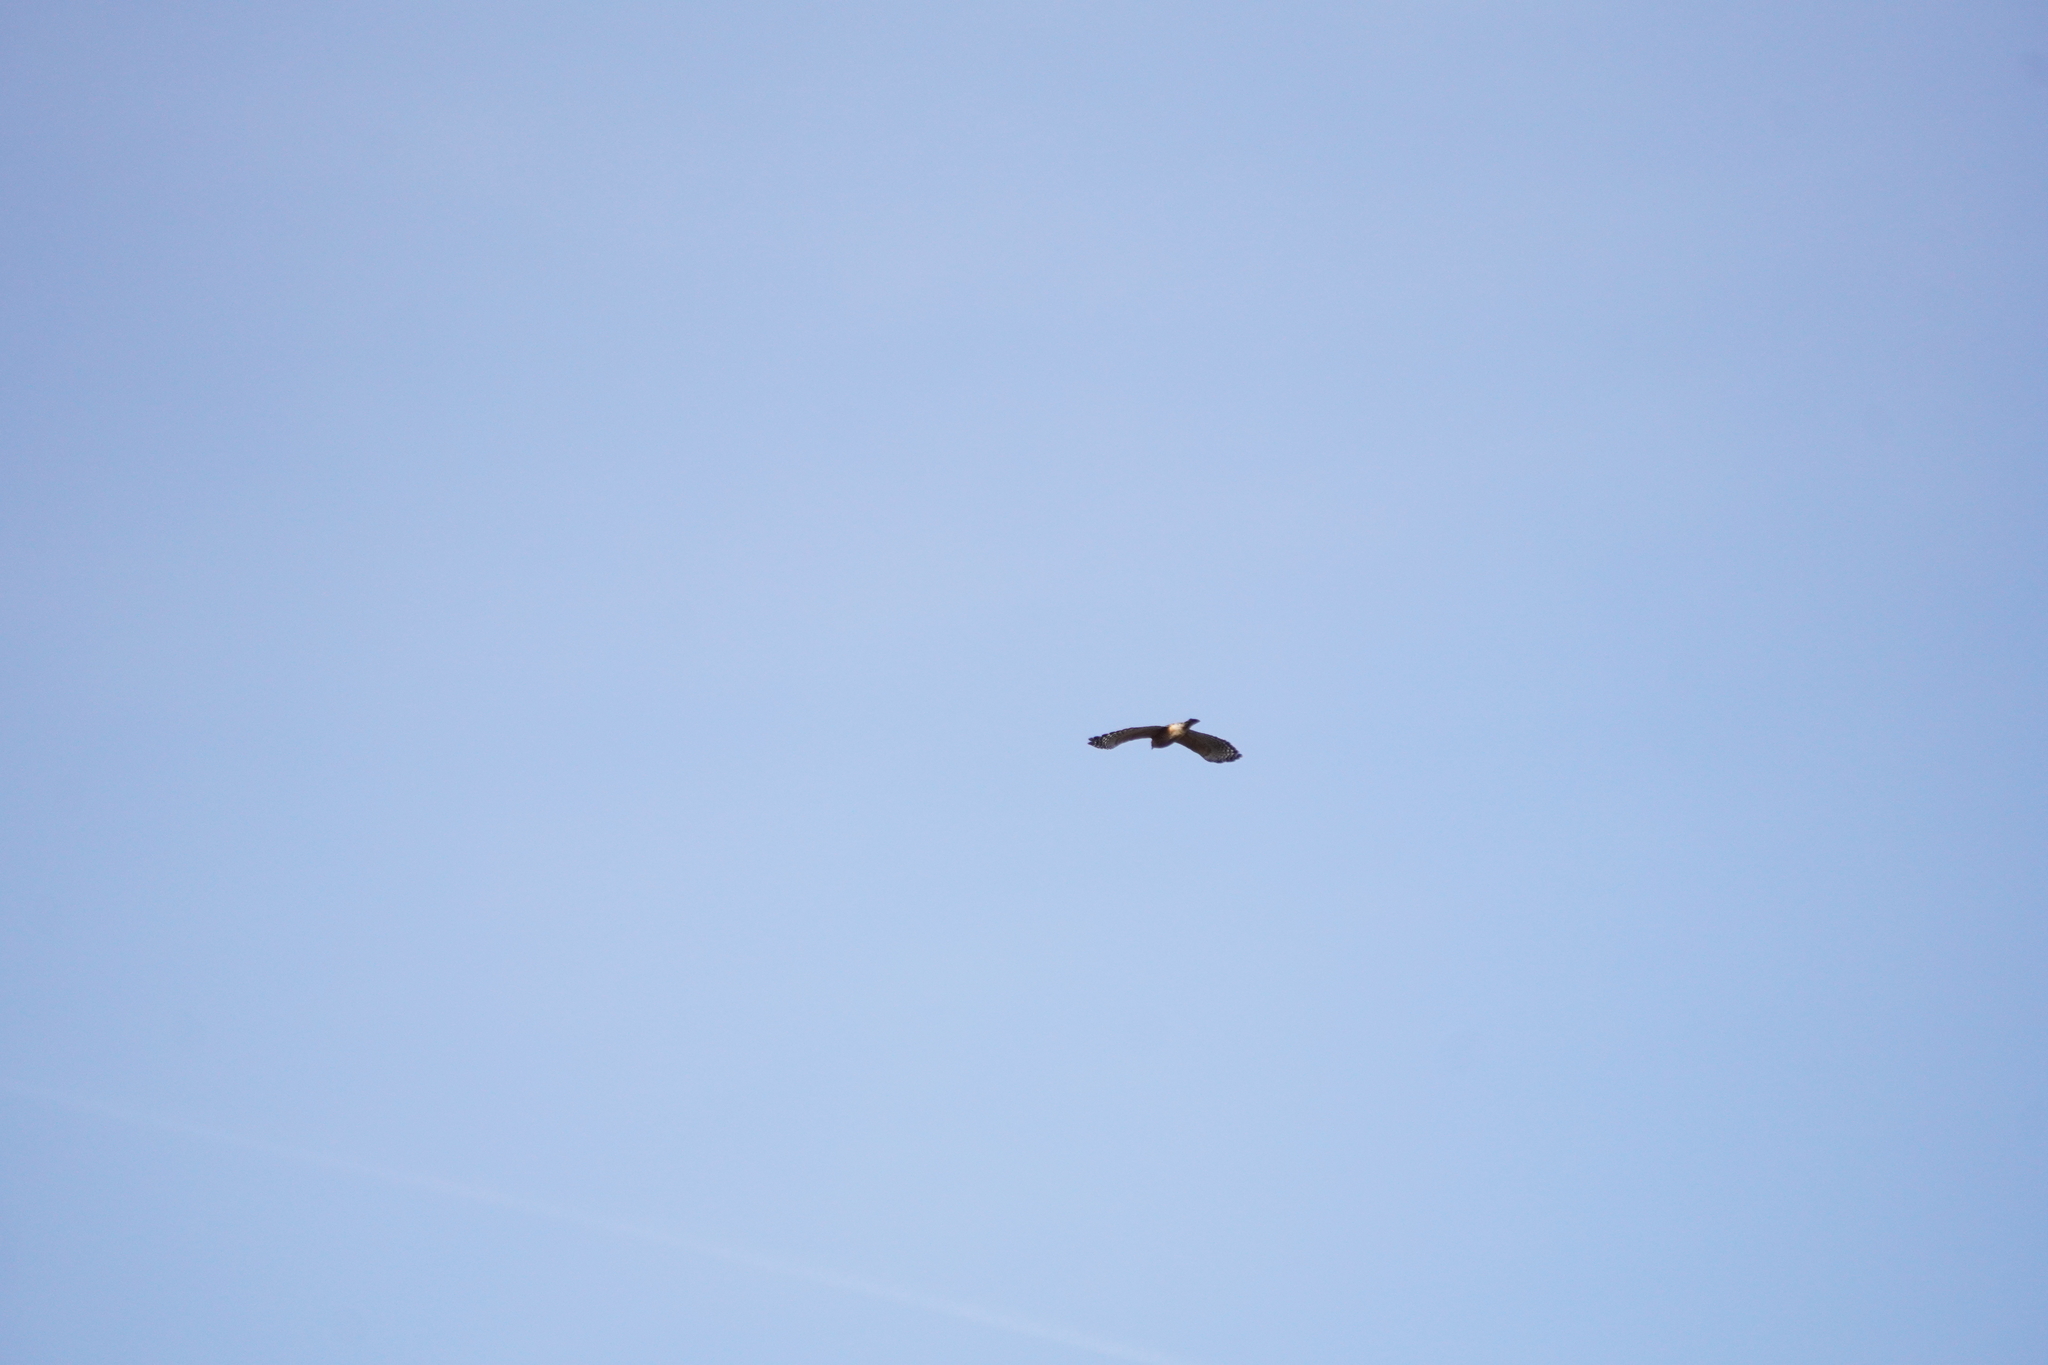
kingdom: Animalia
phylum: Chordata
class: Aves
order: Accipitriformes
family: Accipitridae
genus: Buteo
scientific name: Buteo lineatus
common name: Red-shouldered hawk
